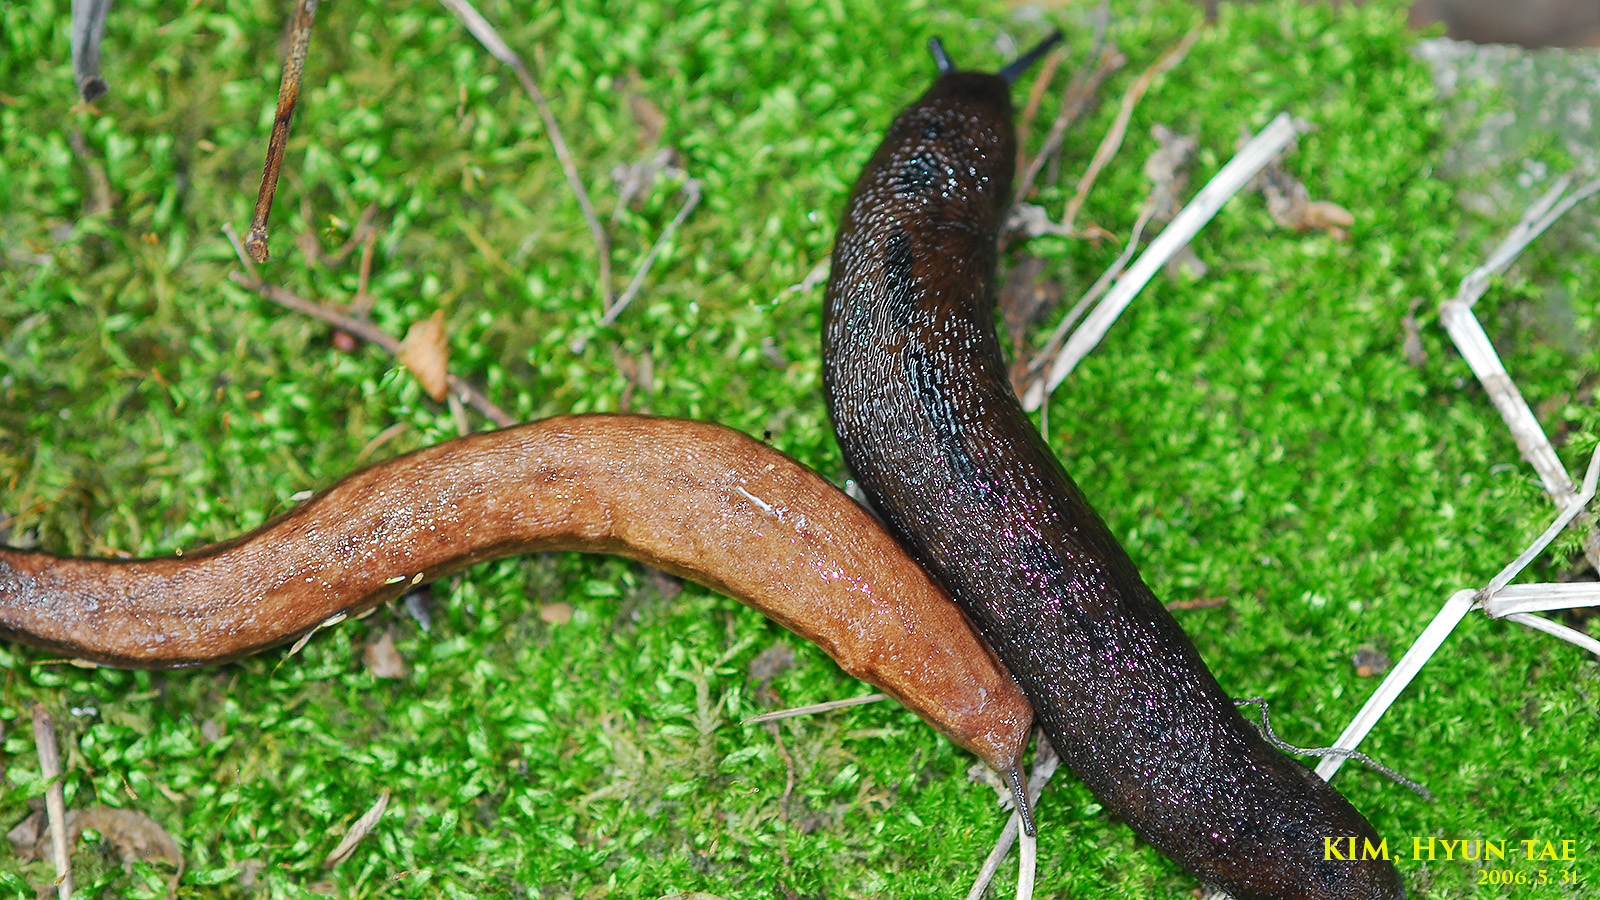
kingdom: Animalia
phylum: Mollusca
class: Gastropoda
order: Stylommatophora
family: Philomycidae
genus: Meghimatium
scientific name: Meghimatium fruhstorferi
